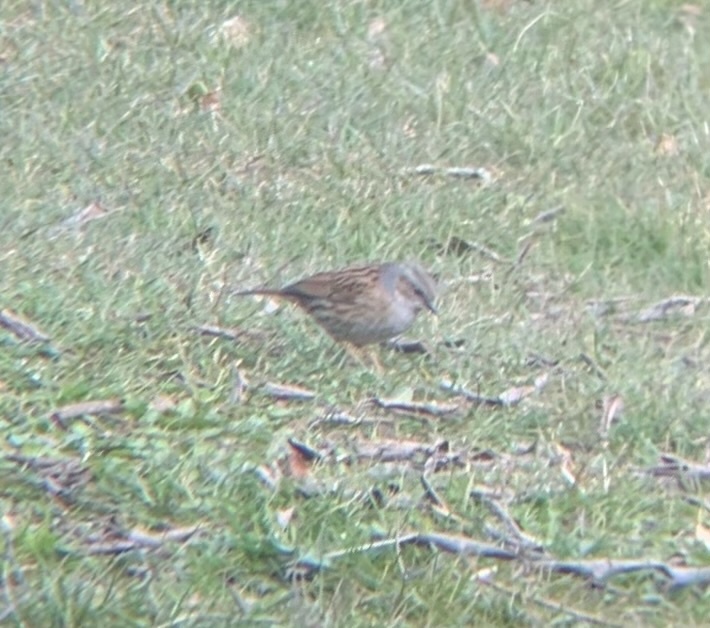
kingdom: Animalia
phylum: Chordata
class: Aves
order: Passeriformes
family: Prunellidae
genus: Prunella
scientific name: Prunella modularis
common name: Dunnock
